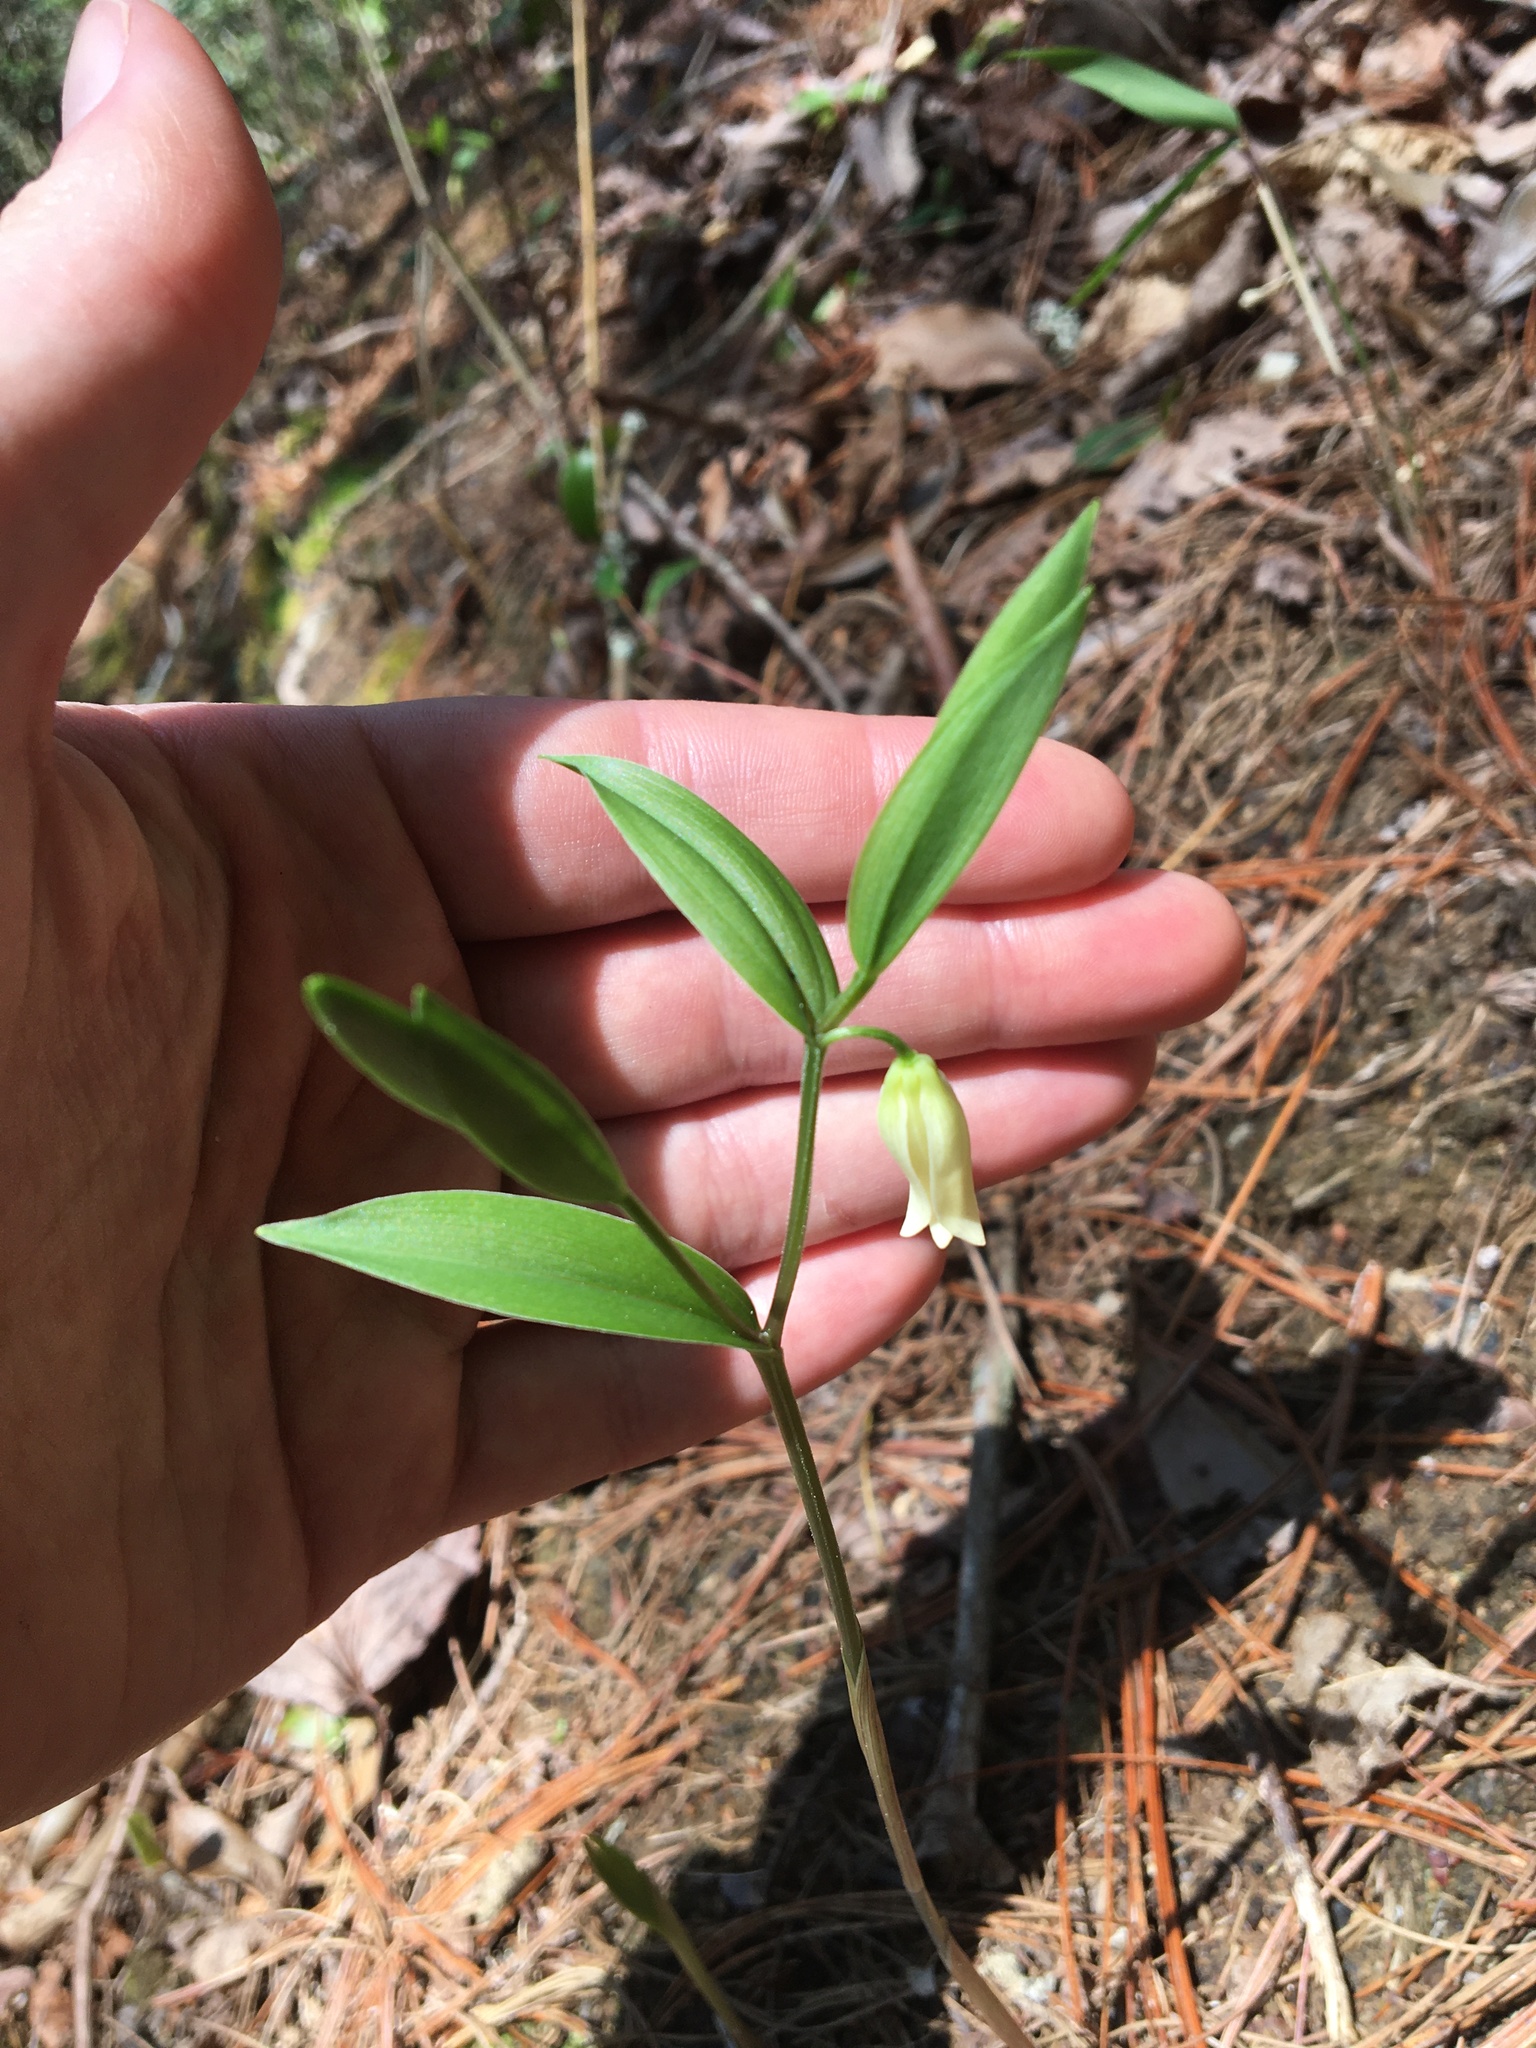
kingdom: Plantae
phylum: Tracheophyta
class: Liliopsida
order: Liliales
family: Colchicaceae
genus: Uvularia
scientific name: Uvularia puberula
